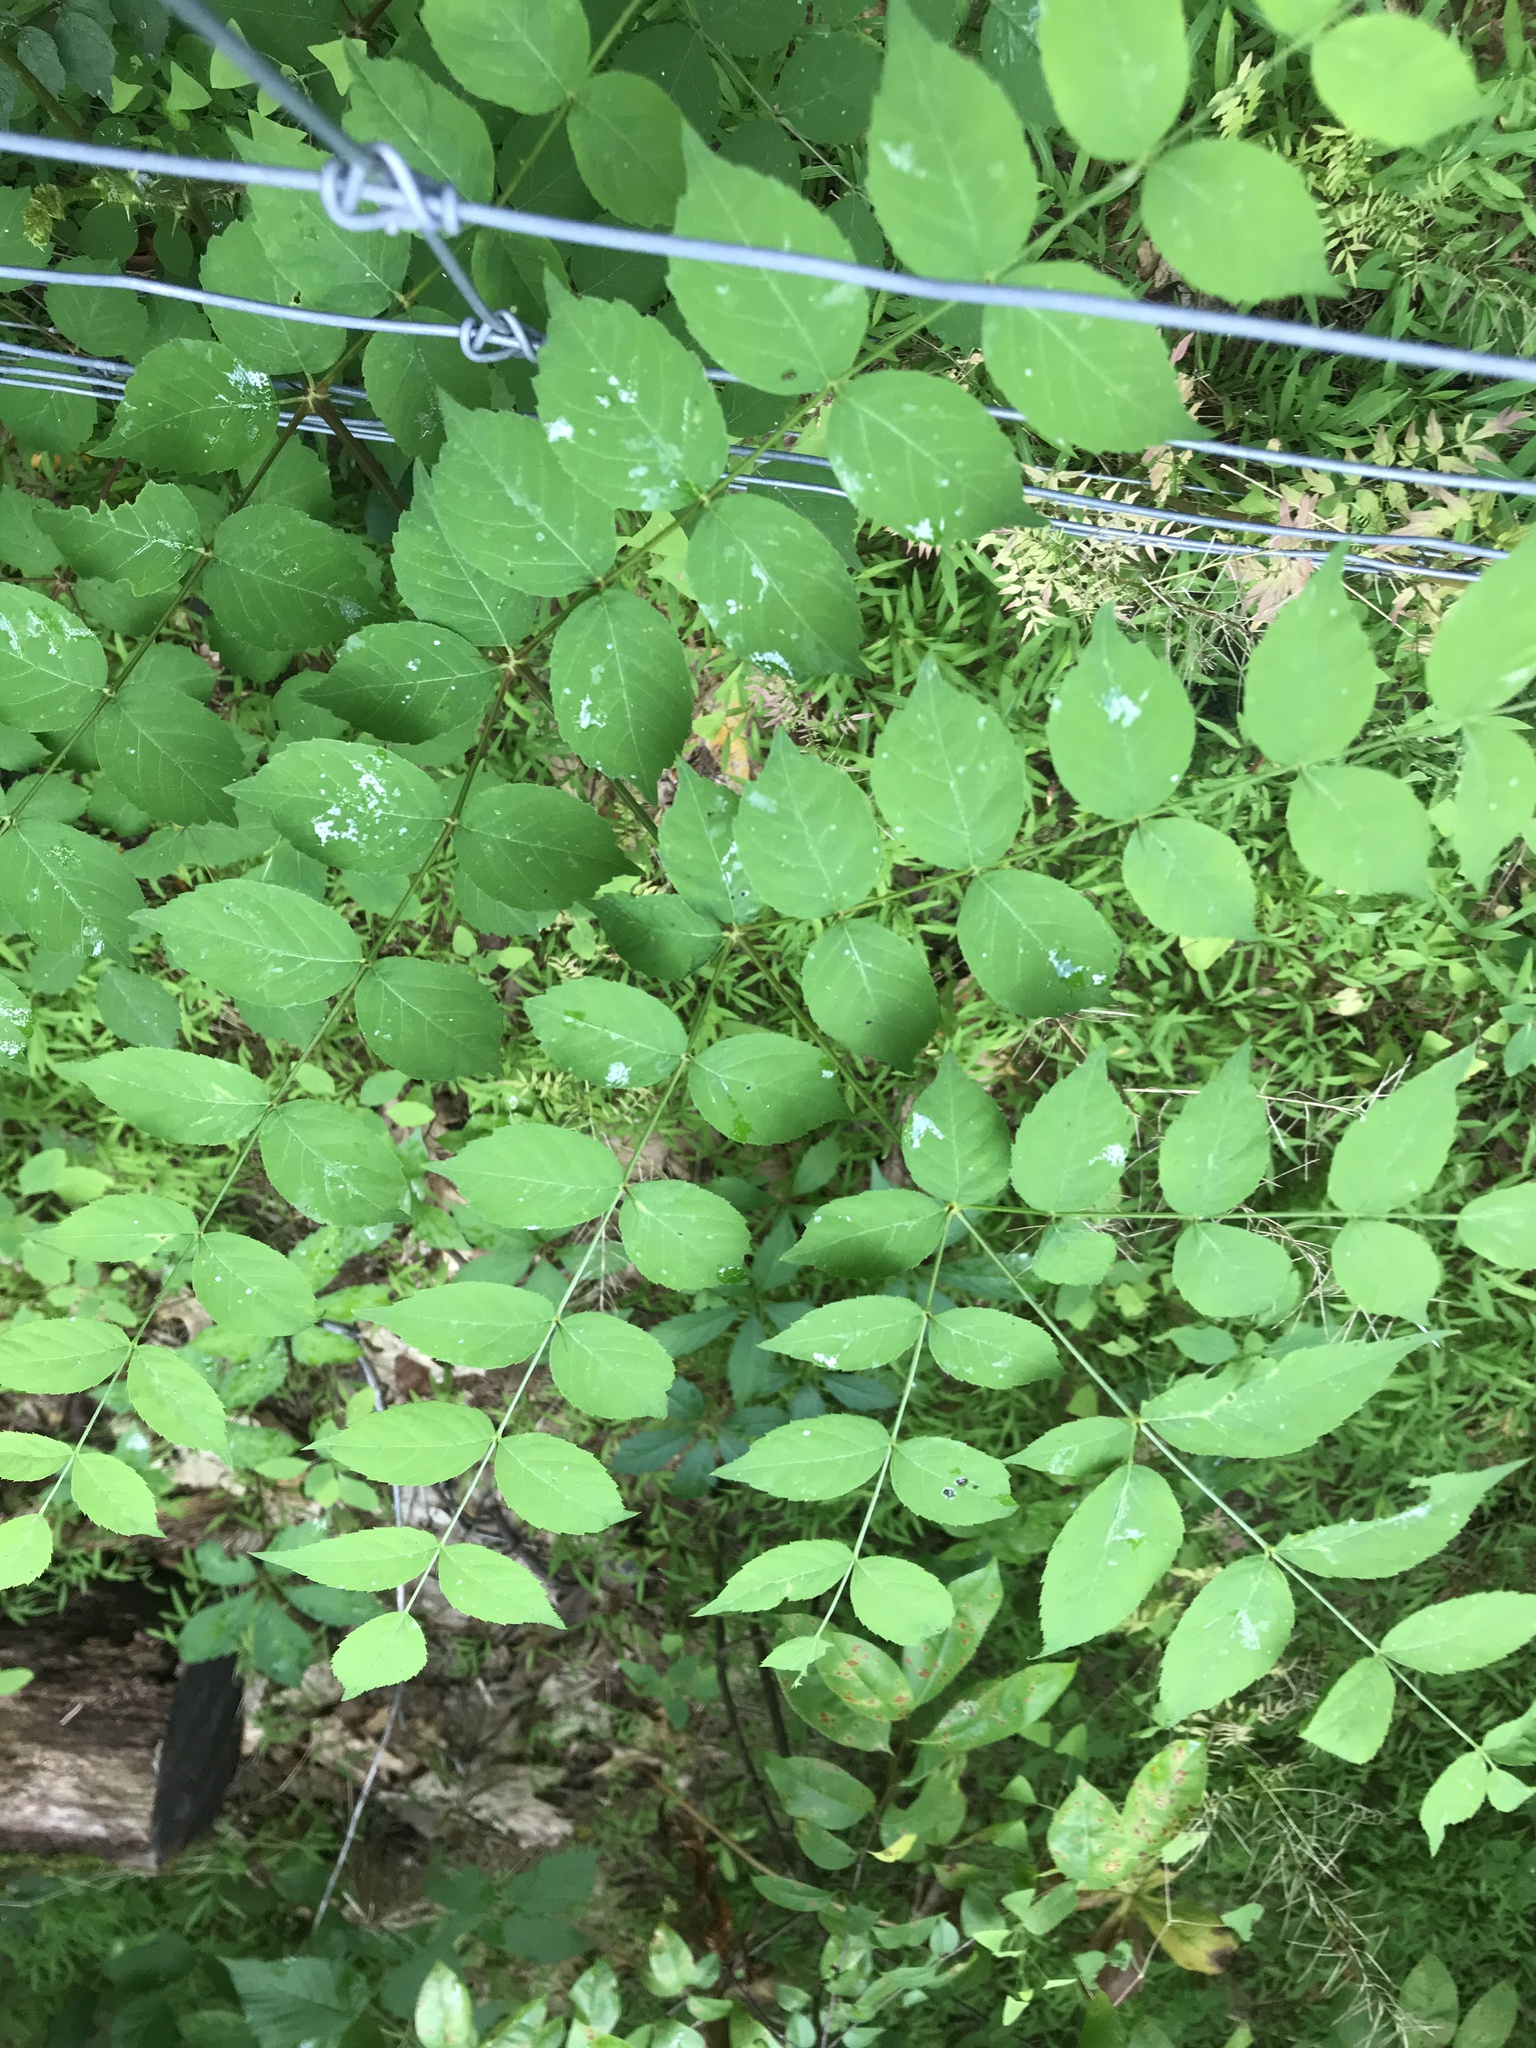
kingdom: Plantae
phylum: Tracheophyta
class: Magnoliopsida
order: Apiales
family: Araliaceae
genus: Aralia
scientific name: Aralia elata
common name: Japanese angelica-tree
